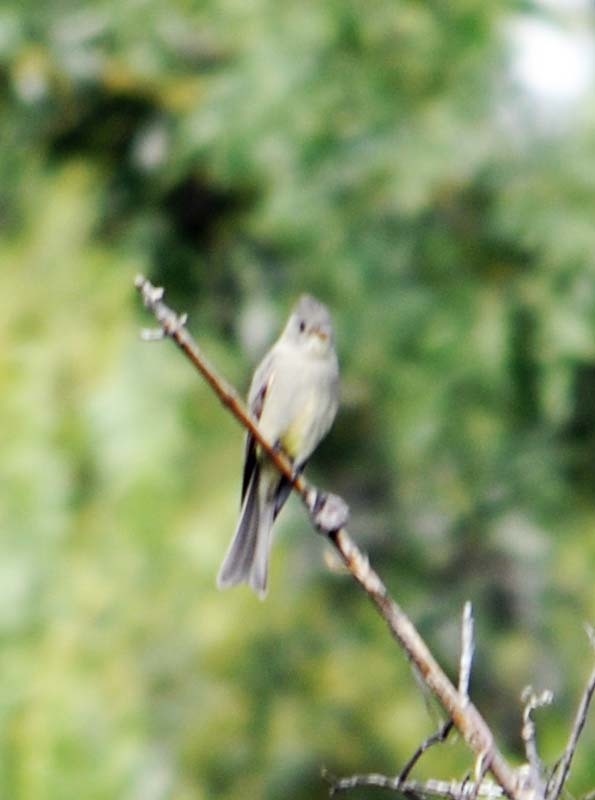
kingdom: Animalia
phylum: Chordata
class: Aves
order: Passeriformes
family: Tyrannidae
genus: Contopus
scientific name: Contopus pertinax
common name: Greater pewee
